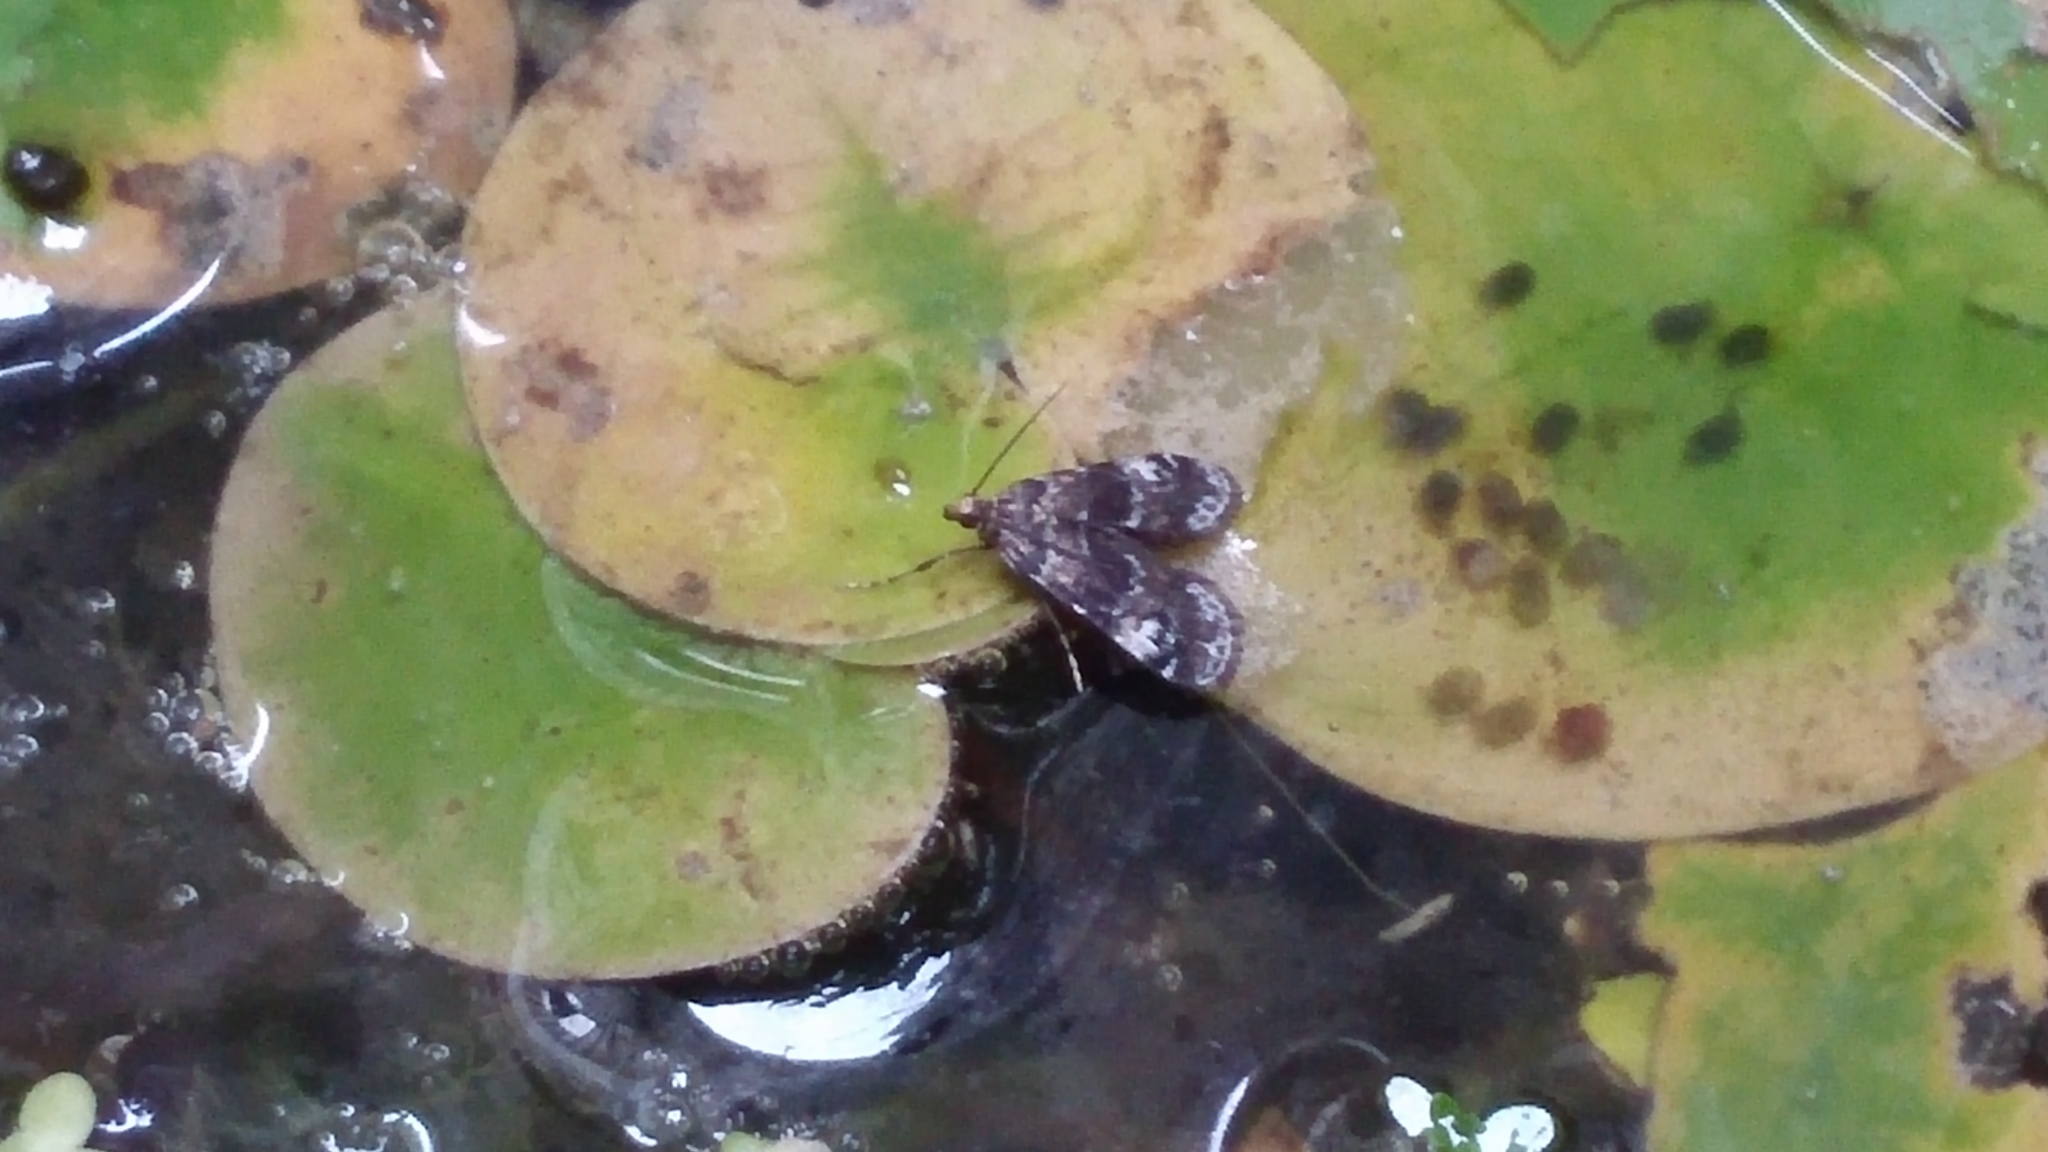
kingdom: Animalia
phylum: Arthropoda
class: Insecta
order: Lepidoptera
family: Crambidae
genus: Elophila
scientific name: Elophila obliteralis
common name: Waterlily leafcutter moth
